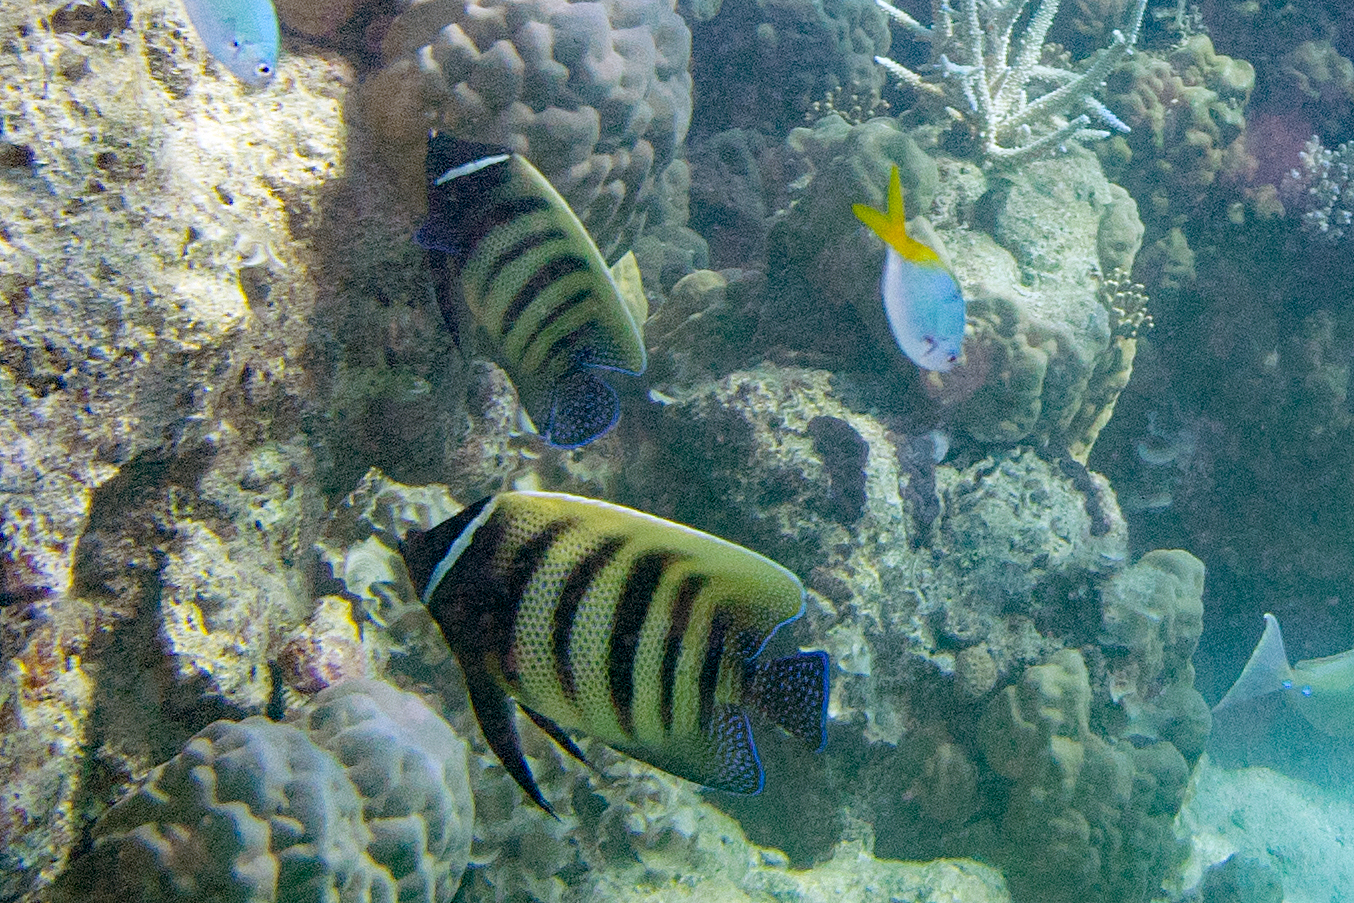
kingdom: Animalia
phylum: Chordata
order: Perciformes
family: Pomacanthidae
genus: Pomacanthus
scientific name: Pomacanthus sexstriatus
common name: Six-banded angelfish
